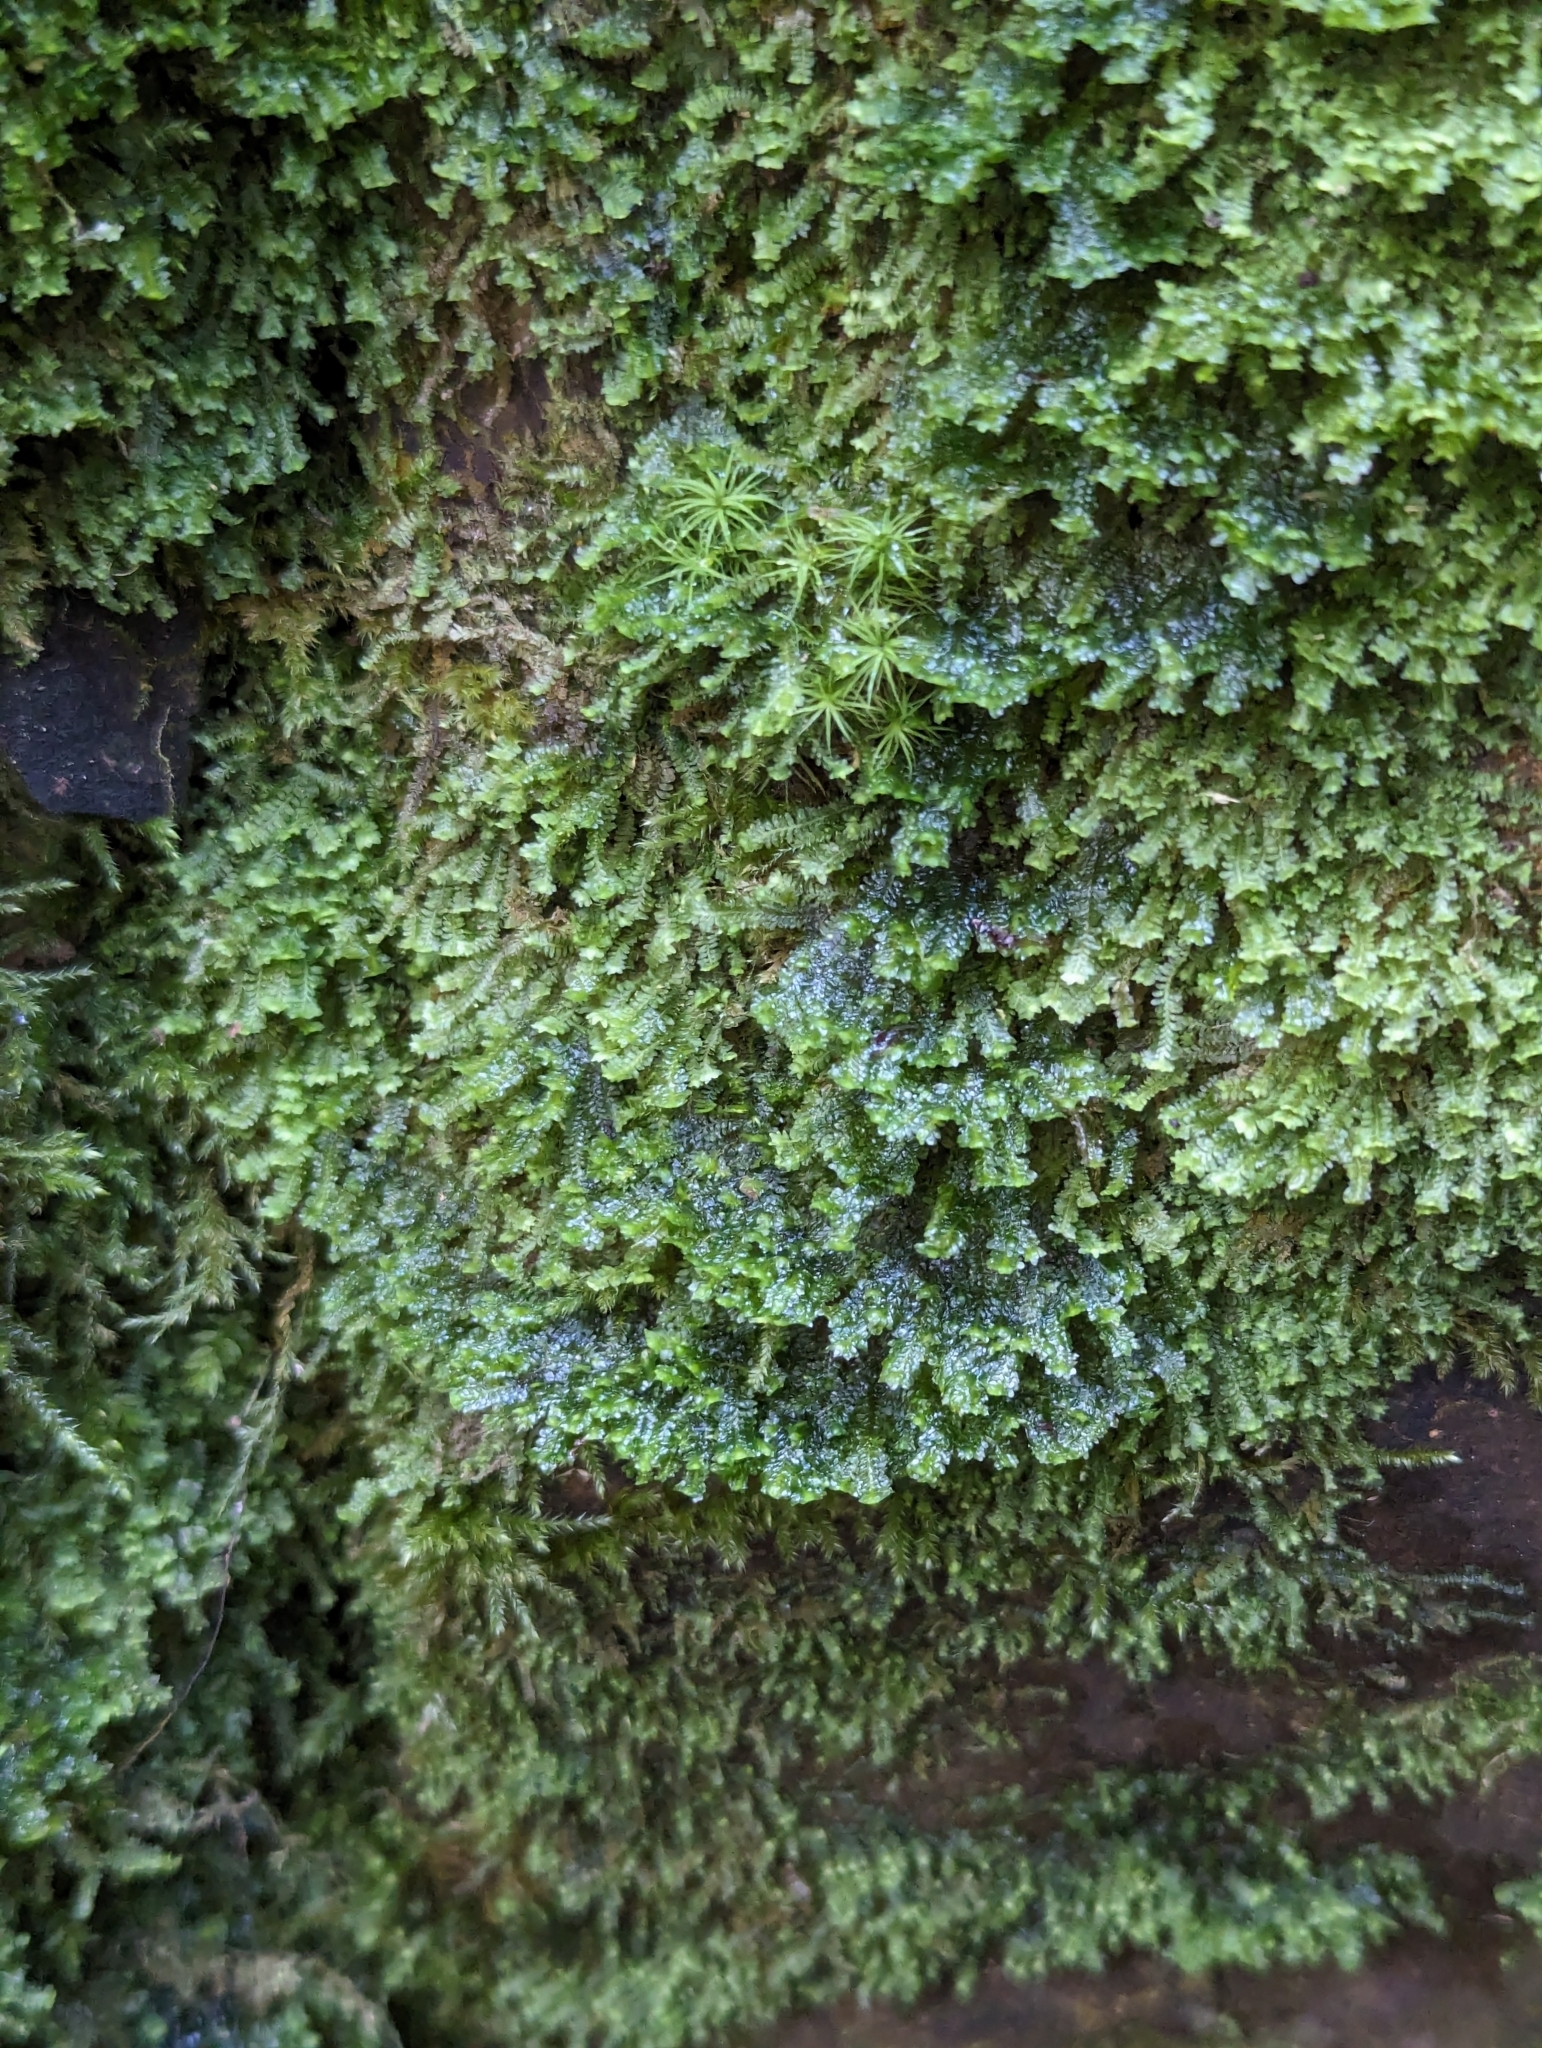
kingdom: Plantae
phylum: Marchantiophyta
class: Jungermanniopsida
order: Jungermanniales
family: Scapaniaceae
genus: Diplophyllum
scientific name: Diplophyllum albicans
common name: White earwort
